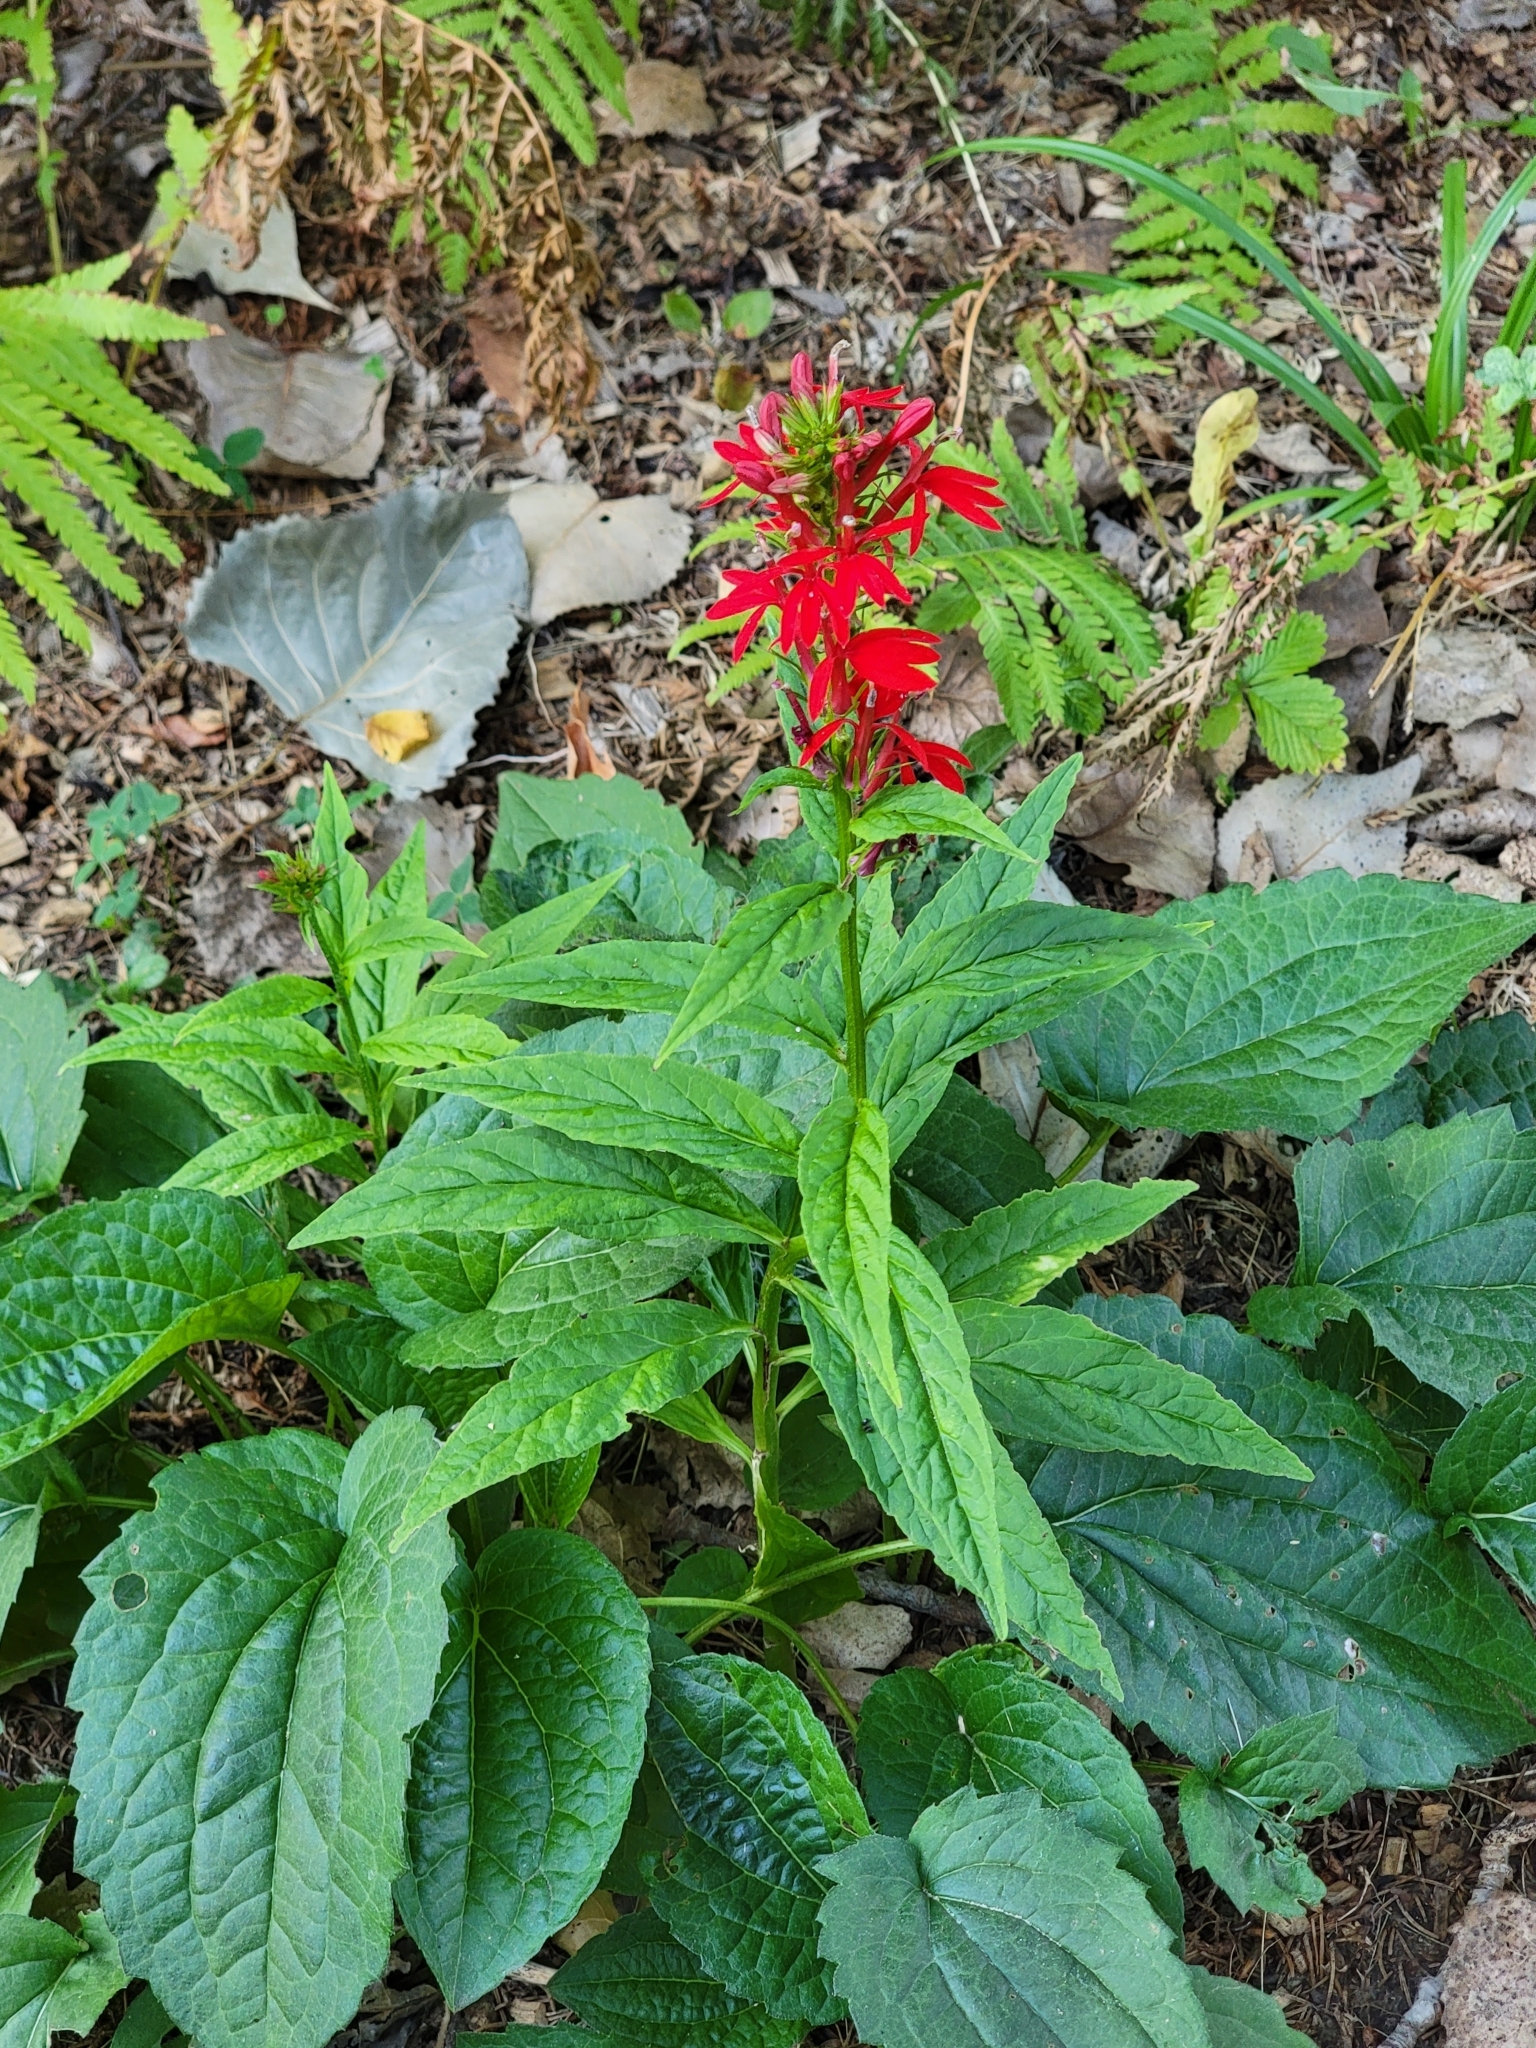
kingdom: Plantae
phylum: Tracheophyta
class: Magnoliopsida
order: Asterales
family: Campanulaceae
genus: Lobelia
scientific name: Lobelia cardinalis
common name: Cardinal flower
